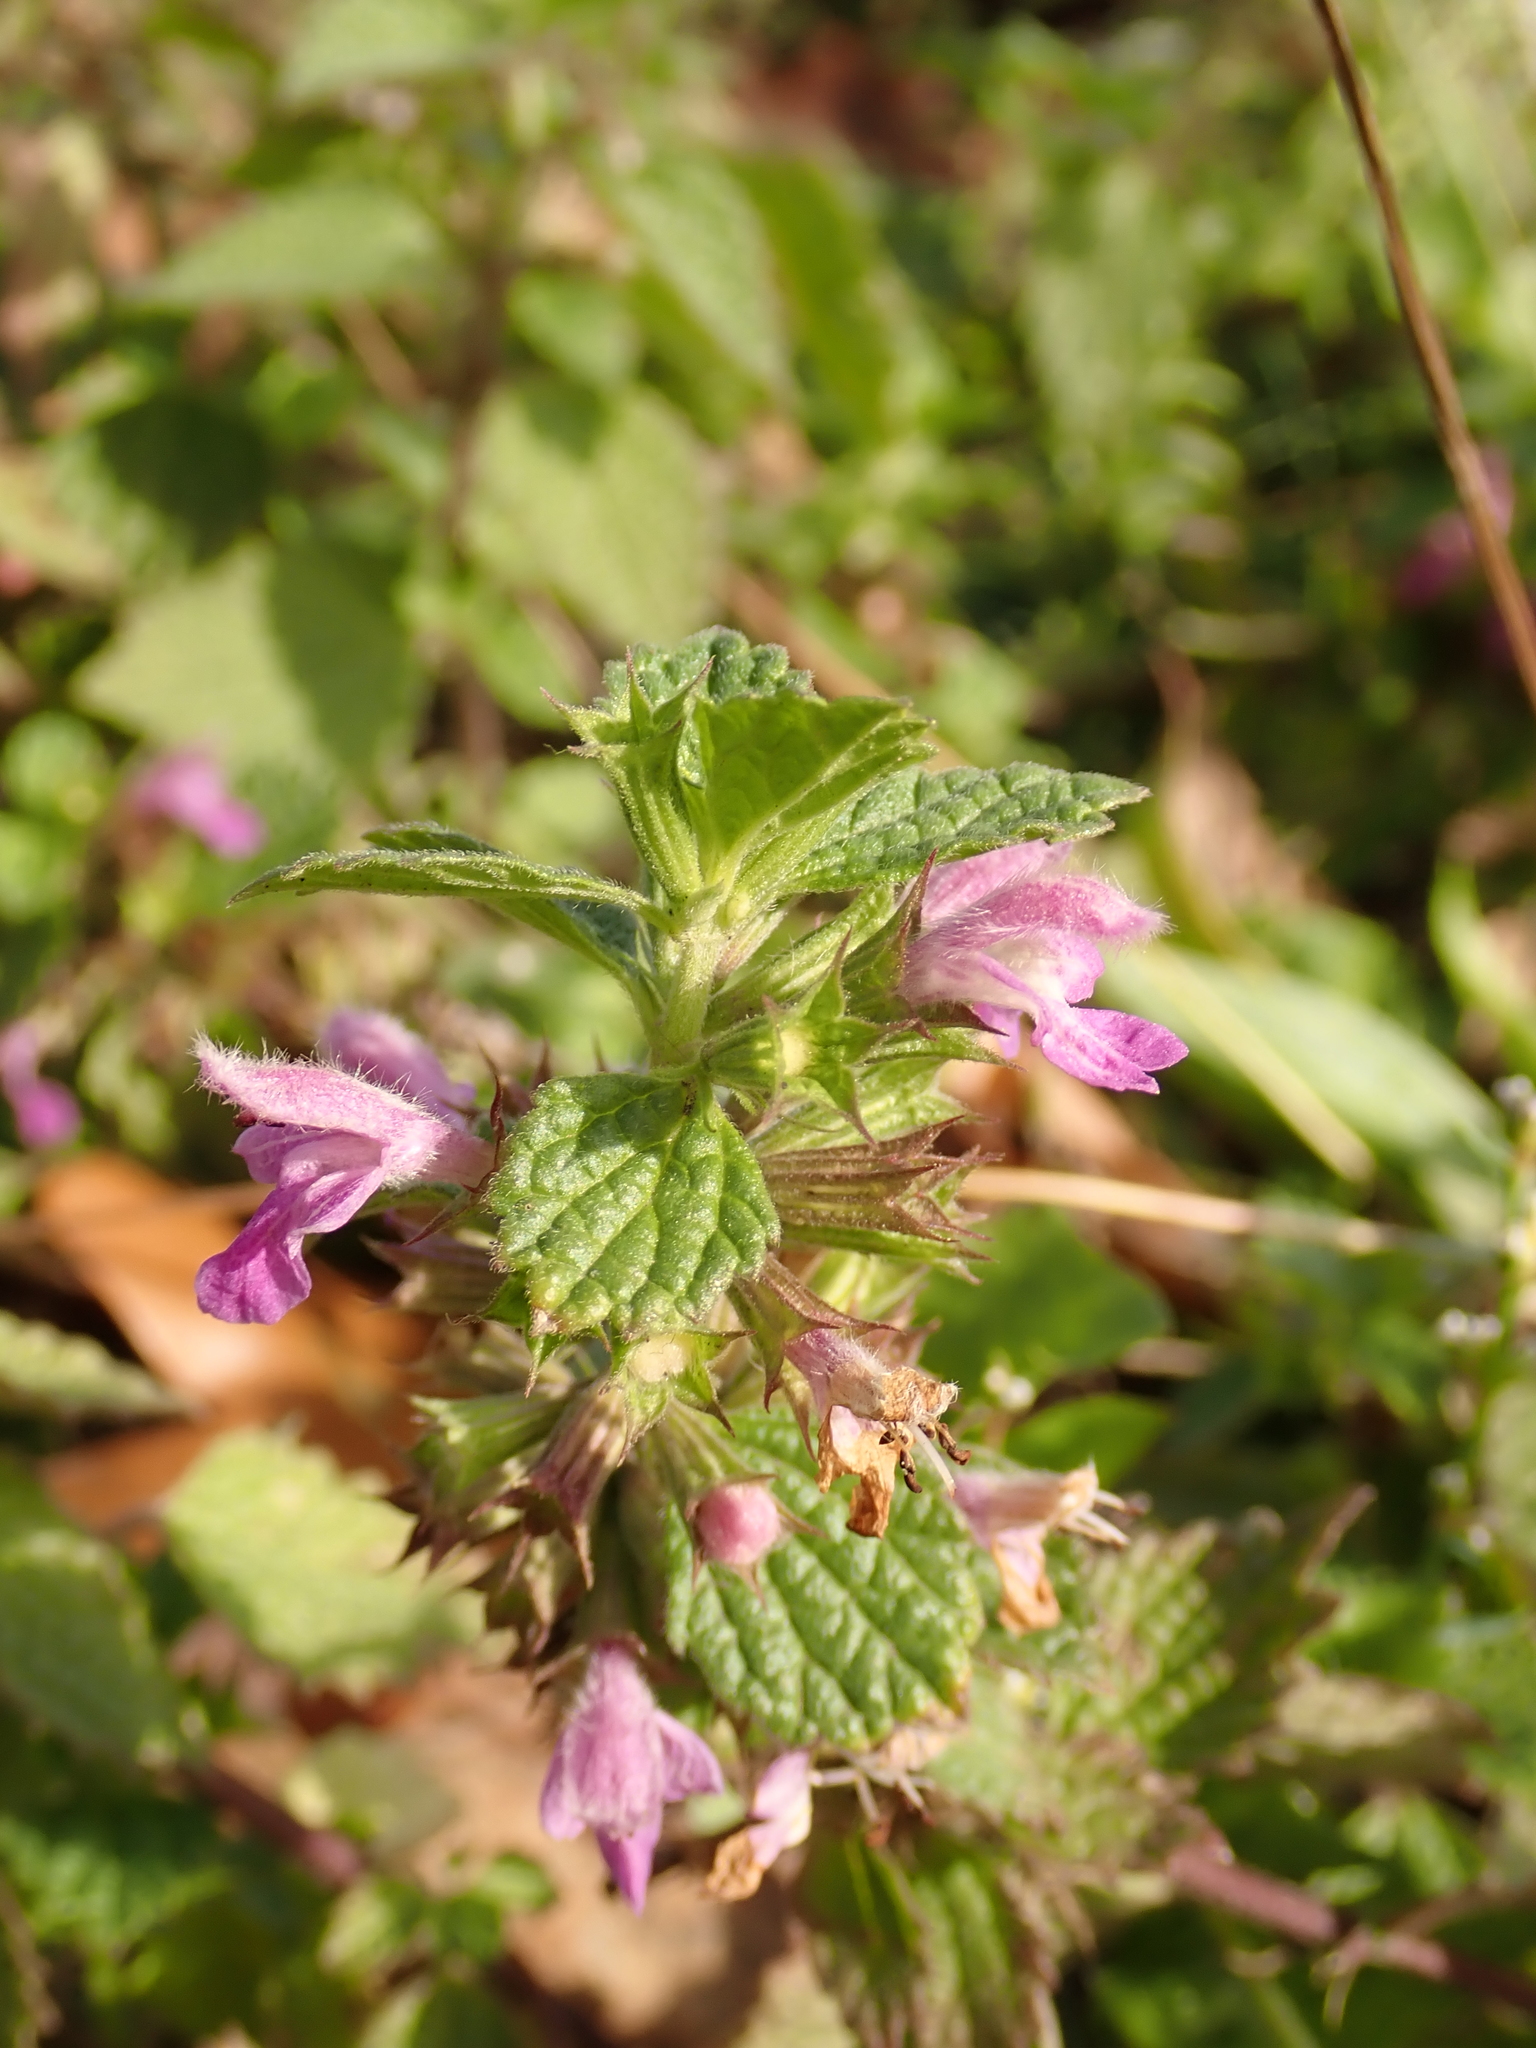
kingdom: Plantae
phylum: Tracheophyta
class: Magnoliopsida
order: Lamiales
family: Lamiaceae
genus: Ballota
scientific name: Ballota nigra
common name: Black horehound
